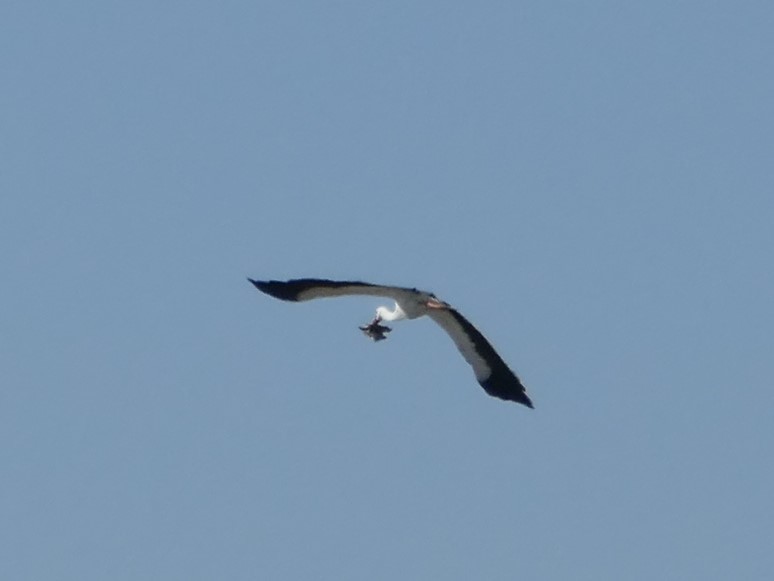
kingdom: Animalia
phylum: Chordata
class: Aves
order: Ciconiiformes
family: Ciconiidae
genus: Ciconia
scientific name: Ciconia ciconia
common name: White stork
